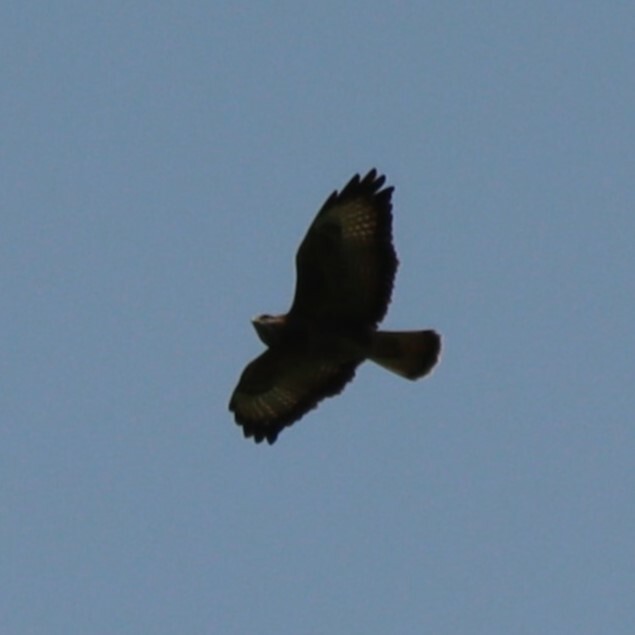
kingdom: Animalia
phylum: Chordata
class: Aves
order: Accipitriformes
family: Accipitridae
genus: Buteo
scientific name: Buteo buteo
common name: Common buzzard
